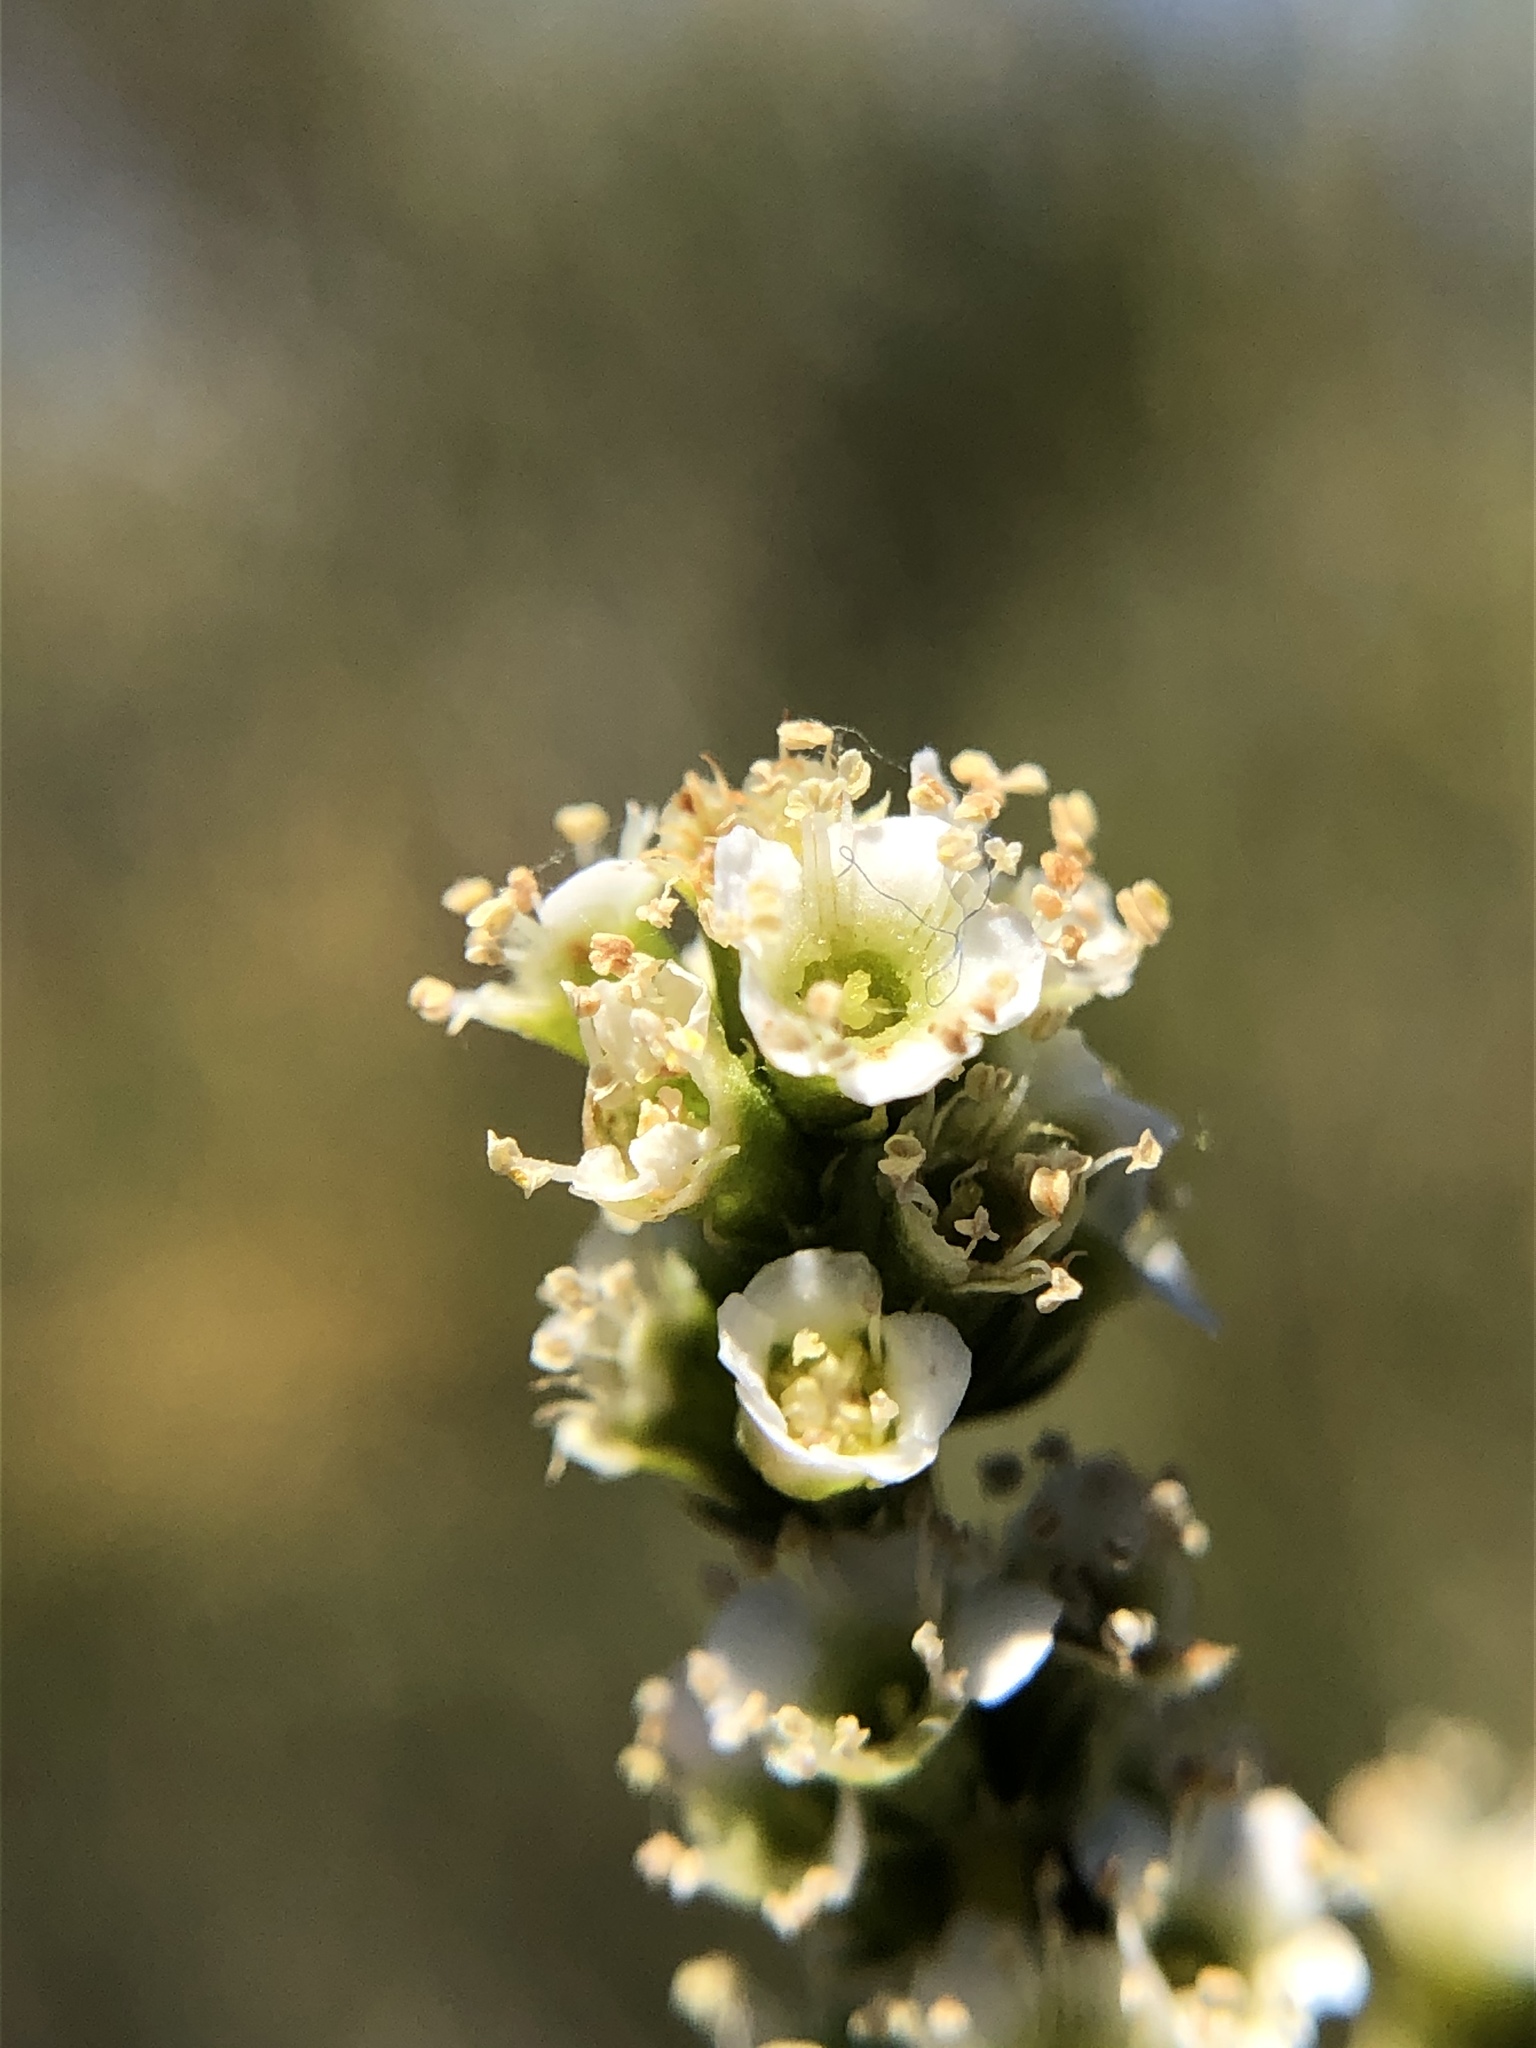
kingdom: Plantae
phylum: Tracheophyta
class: Magnoliopsida
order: Rosales
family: Rosaceae
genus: Adenostoma
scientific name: Adenostoma fasciculatum
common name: Chamise
